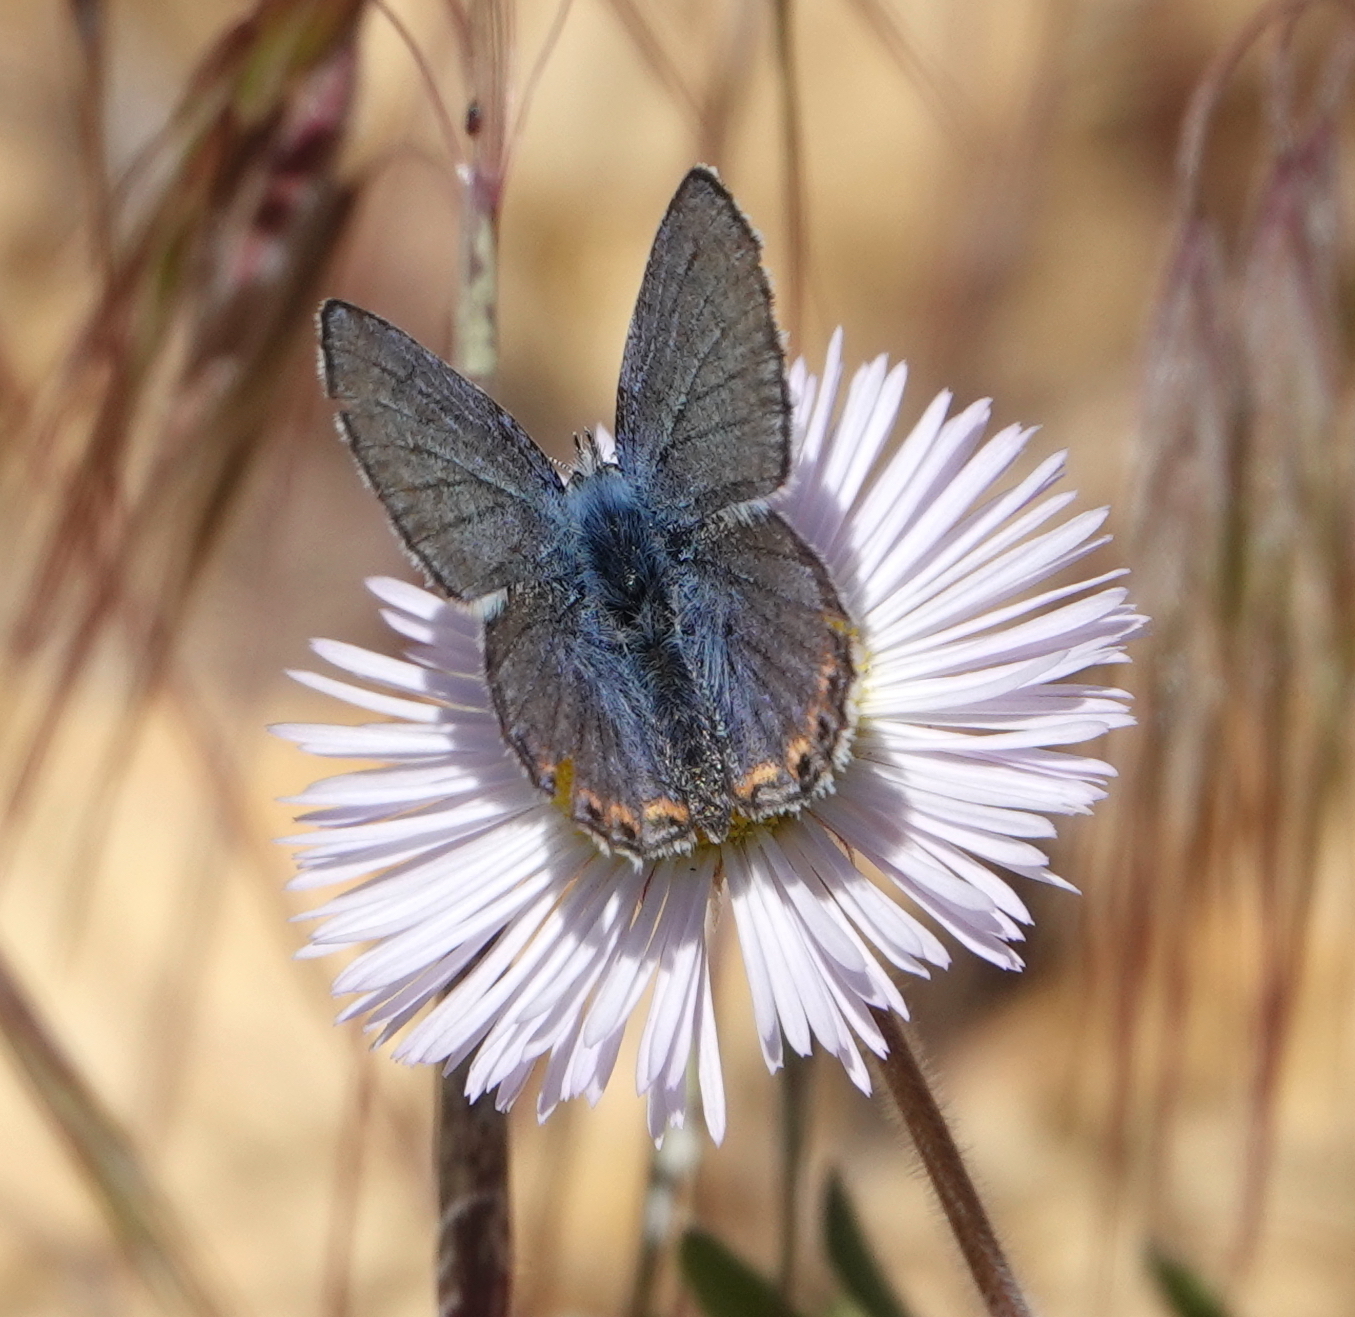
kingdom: Animalia
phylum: Arthropoda
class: Insecta
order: Lepidoptera
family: Lycaenidae
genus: Icaricia
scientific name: Icaricia acmon
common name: Acmon blue
